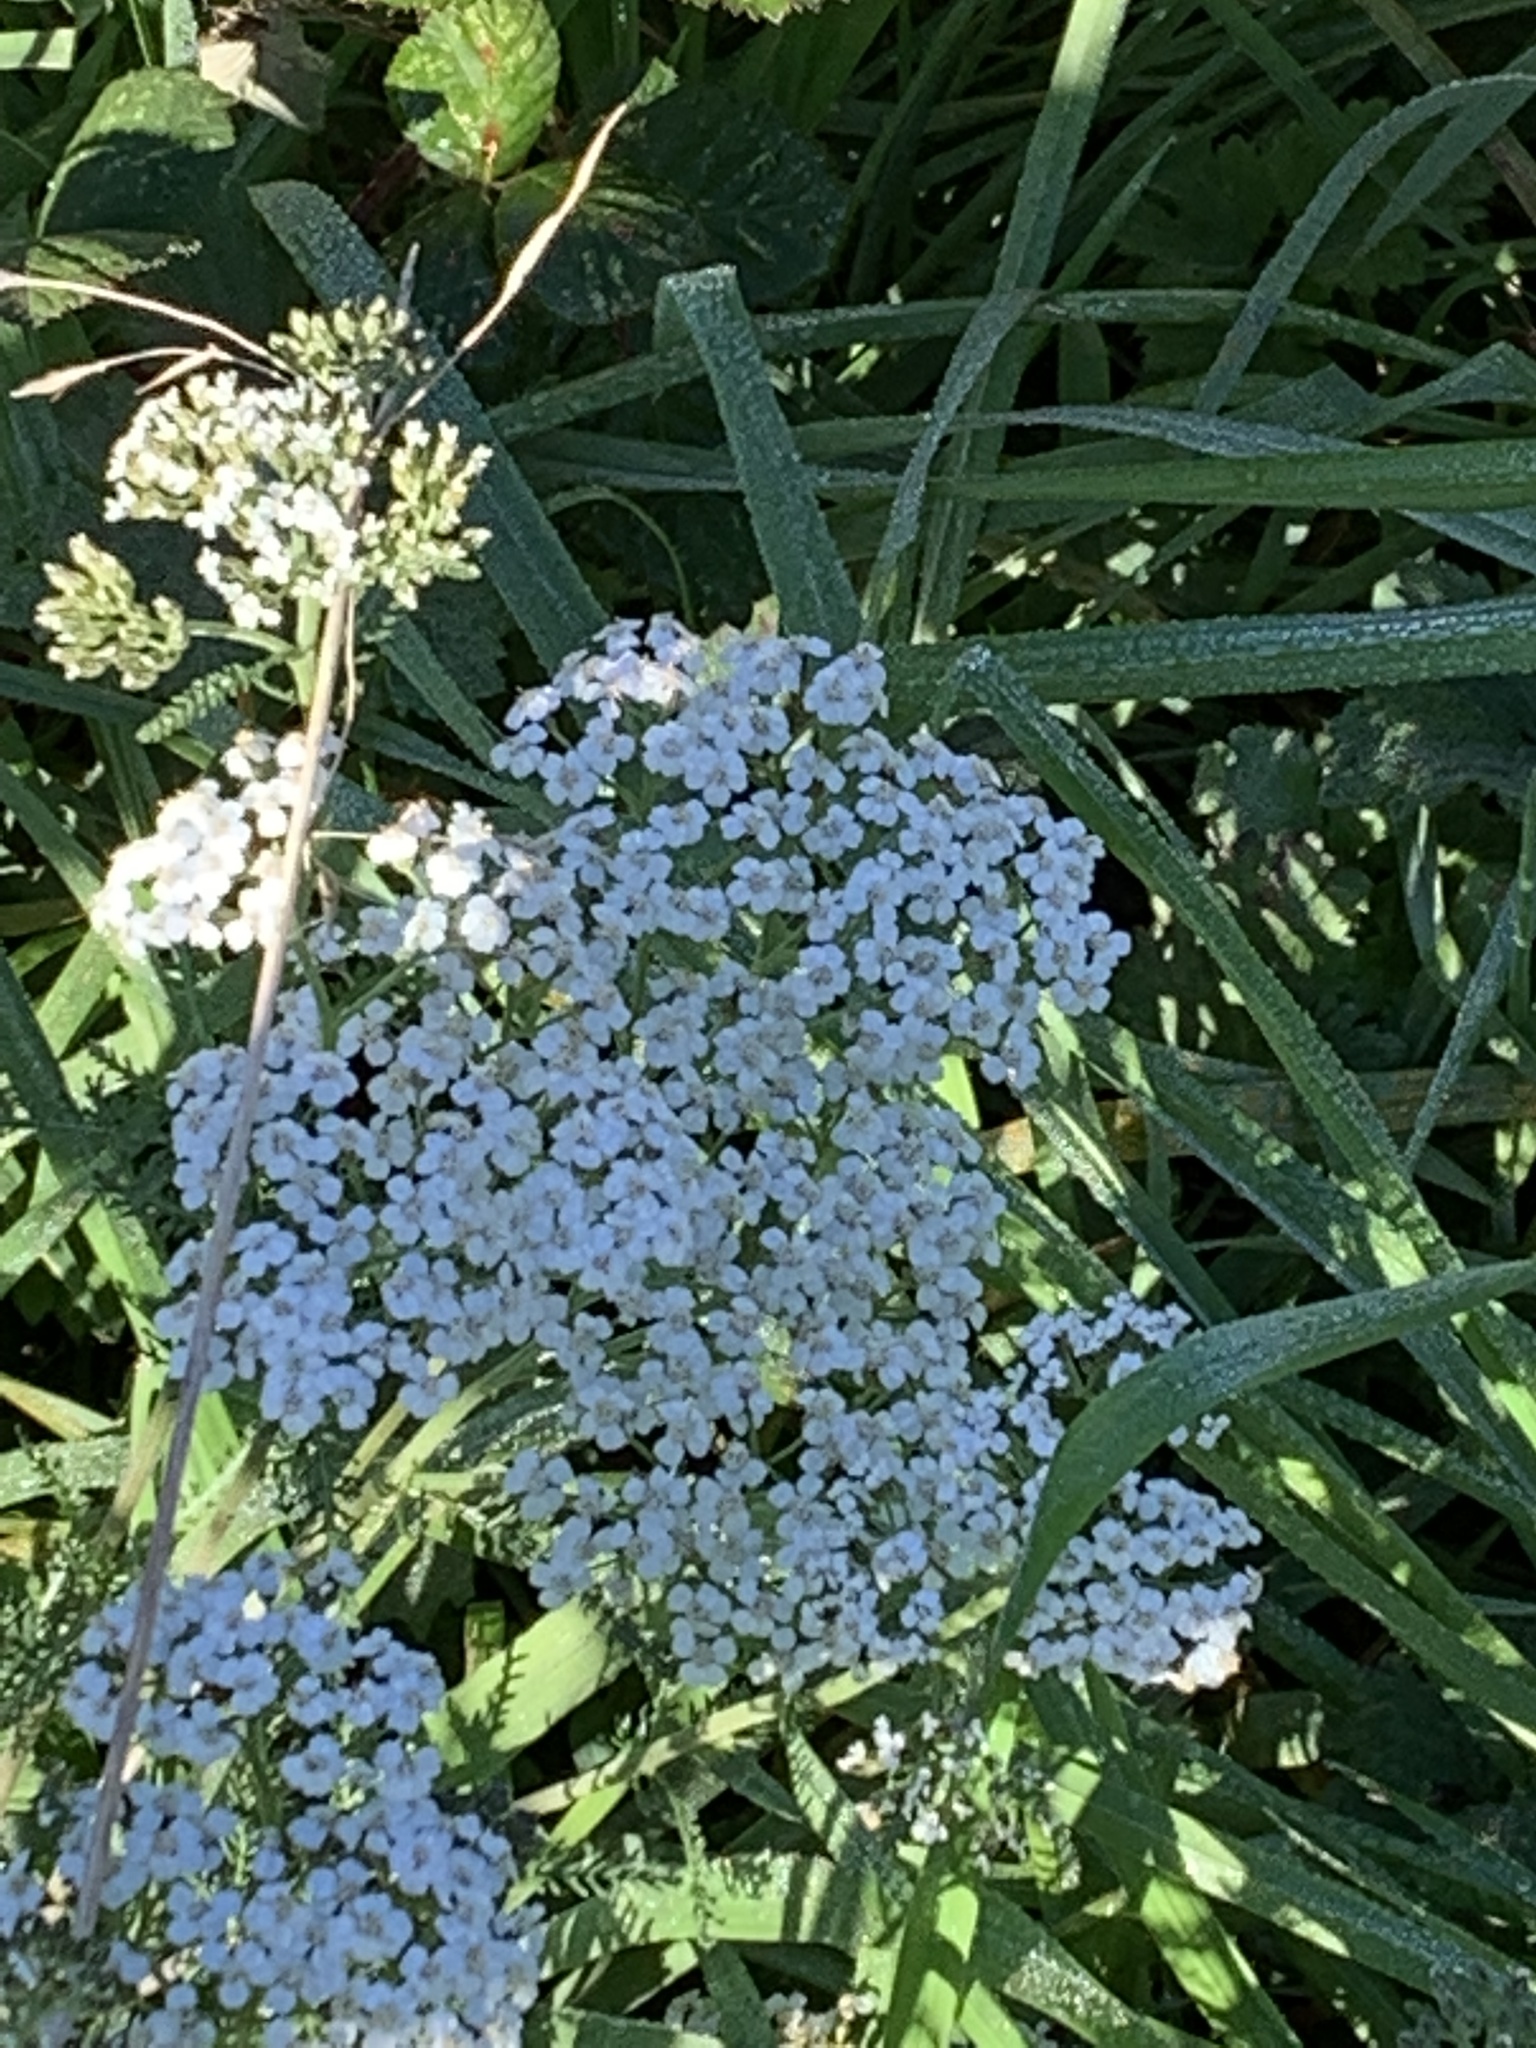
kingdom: Plantae
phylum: Tracheophyta
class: Magnoliopsida
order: Asterales
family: Asteraceae
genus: Achillea
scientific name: Achillea millefolium
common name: Yarrow
